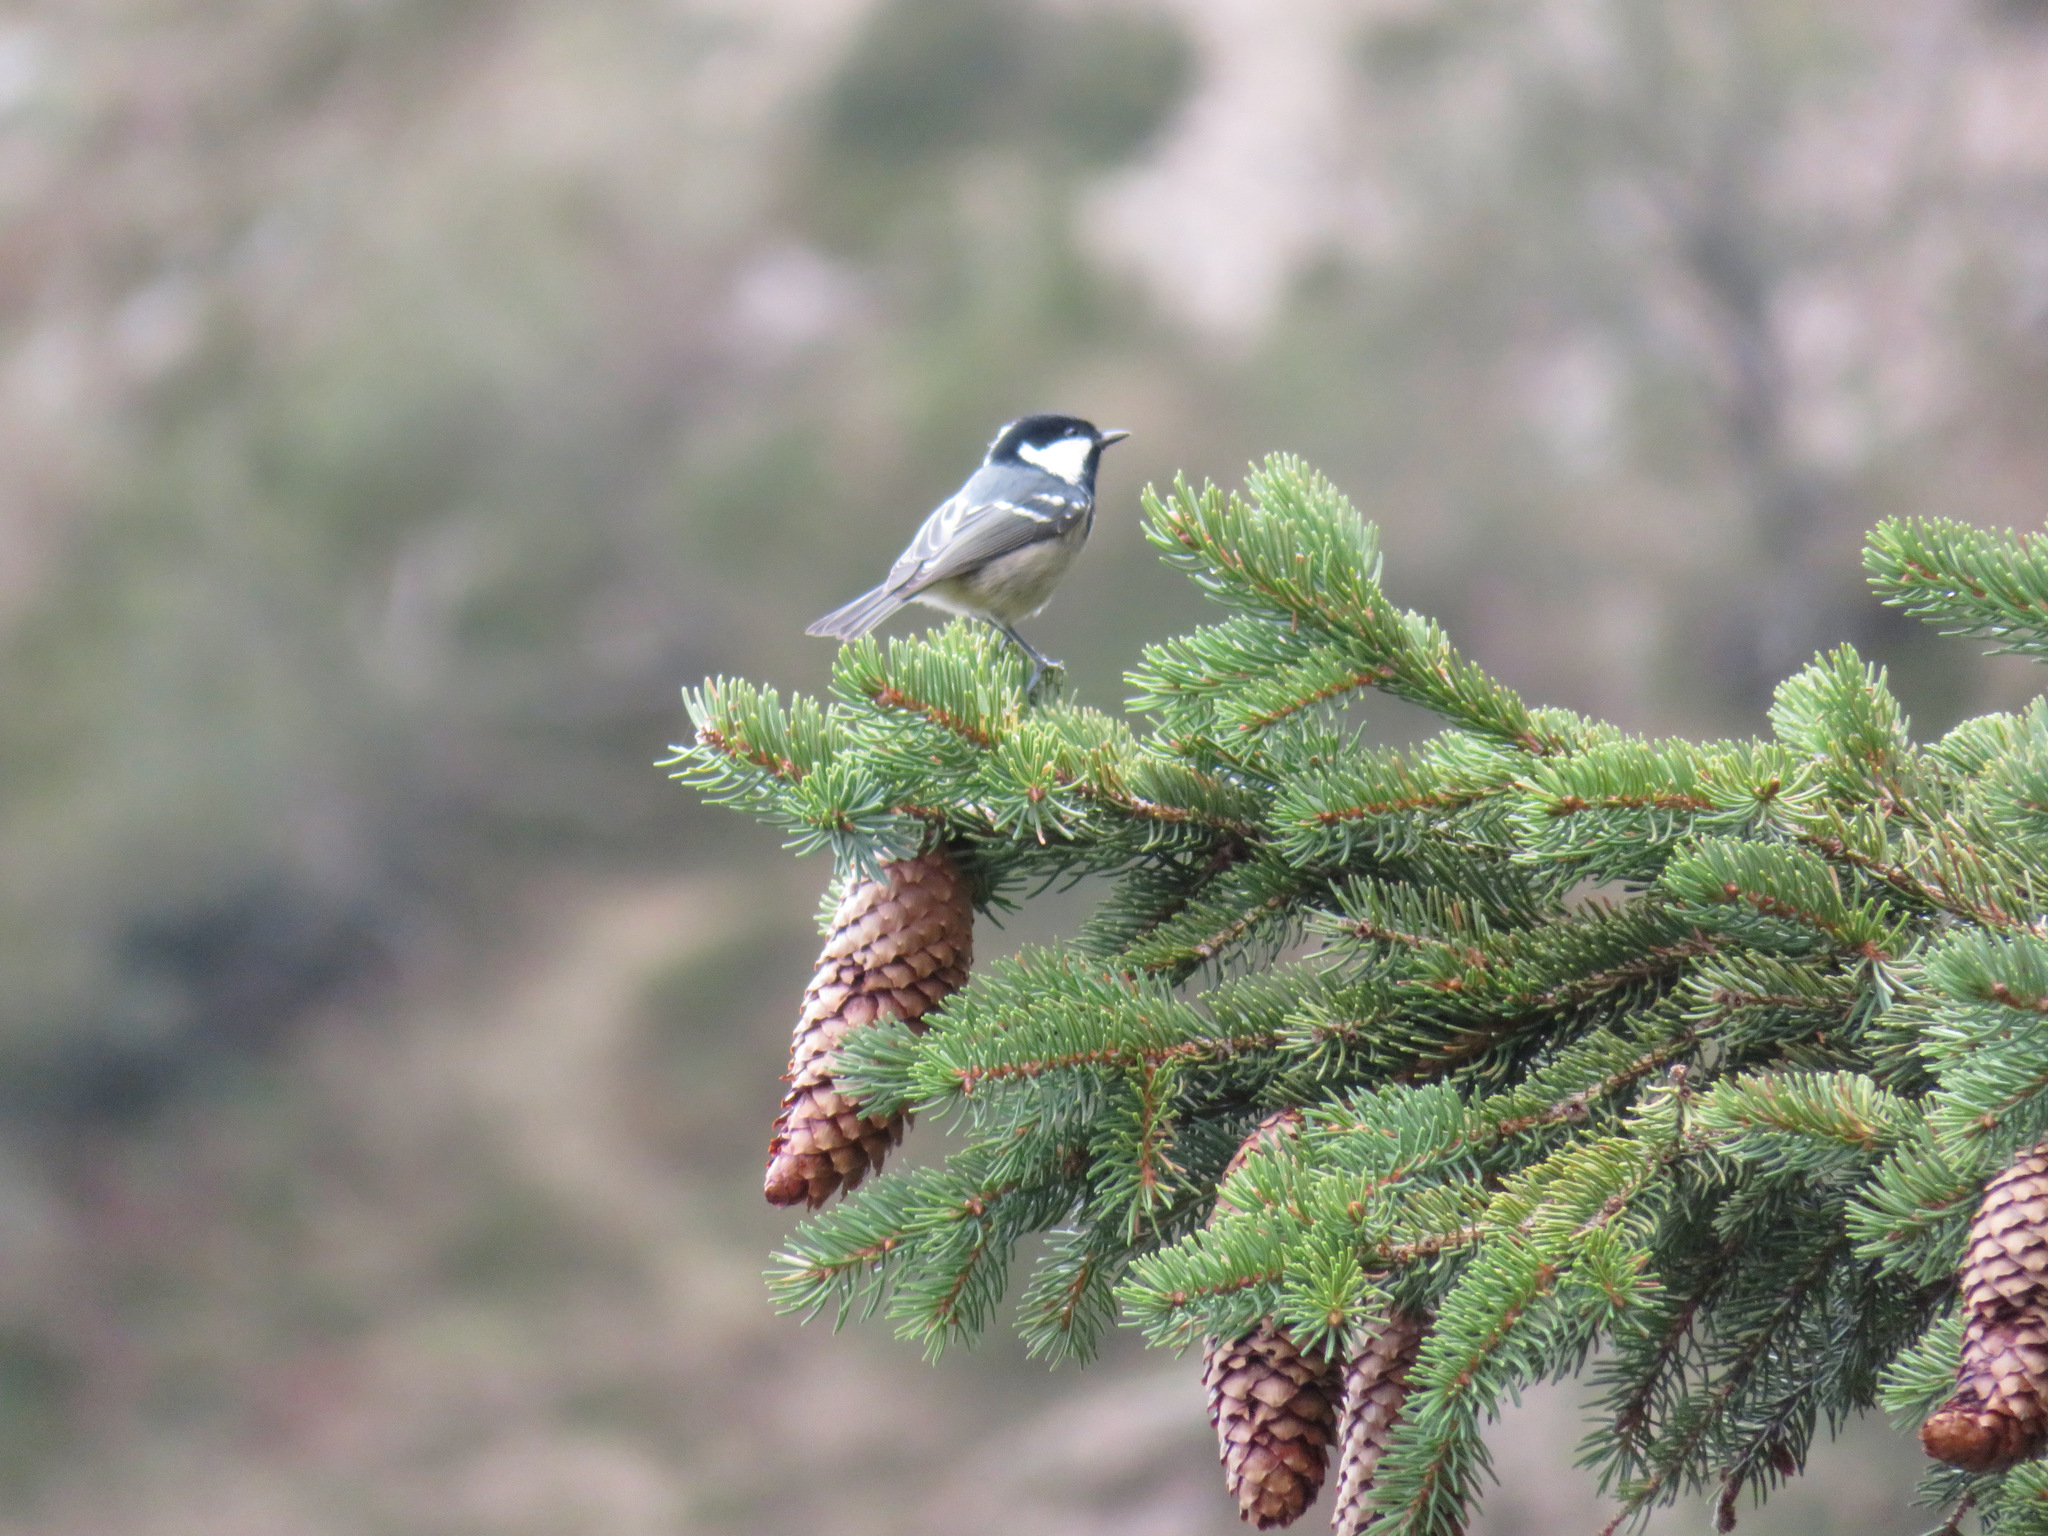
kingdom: Animalia
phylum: Chordata
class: Aves
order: Passeriformes
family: Paridae
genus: Periparus
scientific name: Periparus ater
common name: Coal tit
